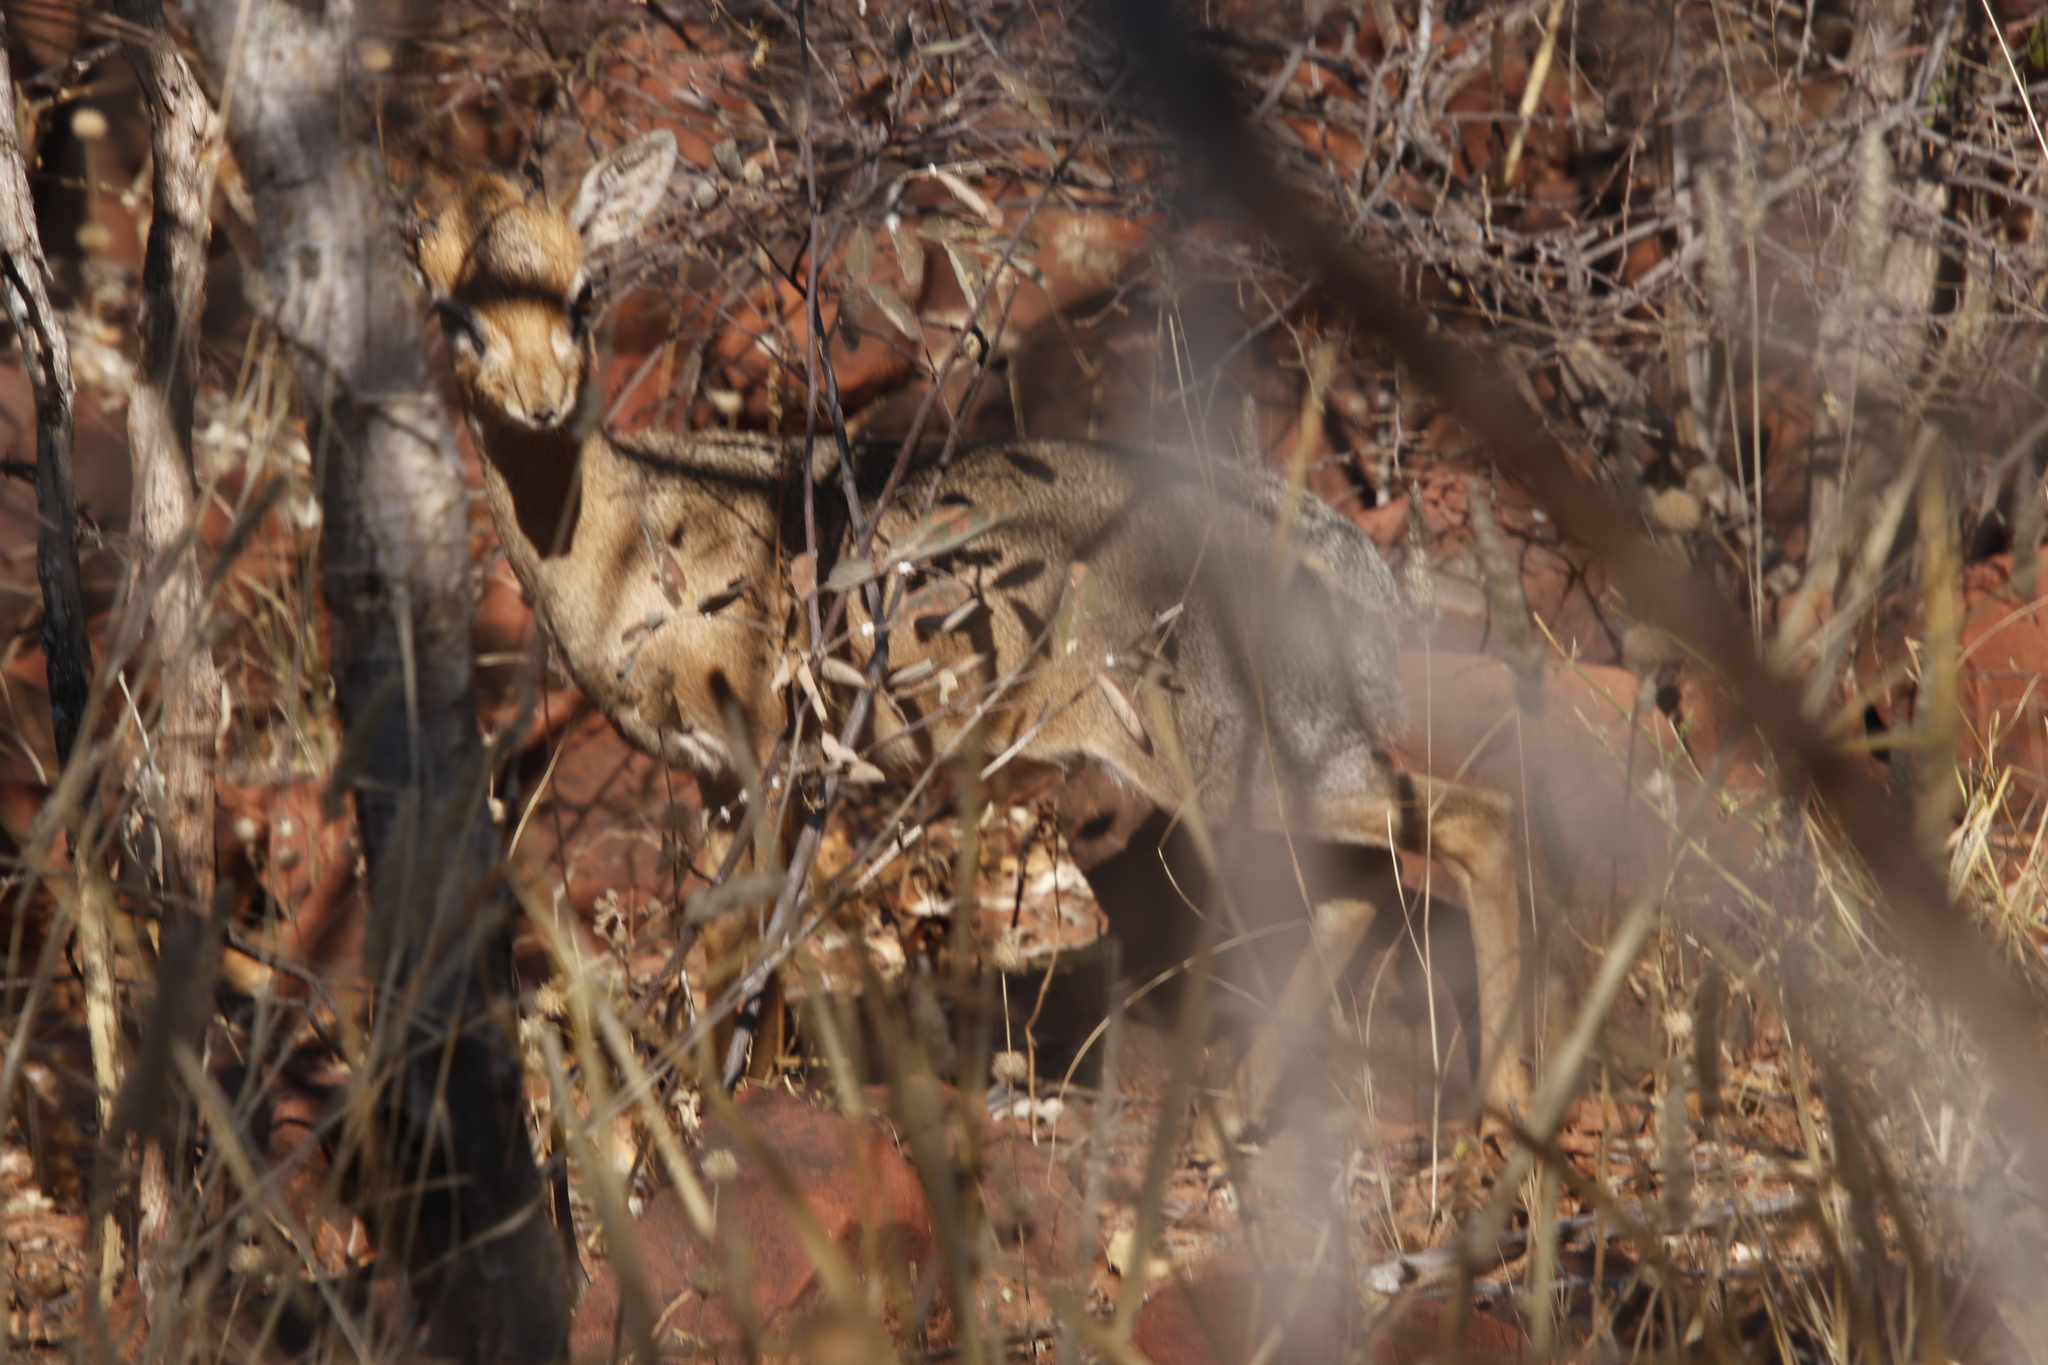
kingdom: Animalia
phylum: Chordata
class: Mammalia
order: Artiodactyla
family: Bovidae
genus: Madoqua
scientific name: Madoqua kirkii
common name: Kirk's dik-dik
